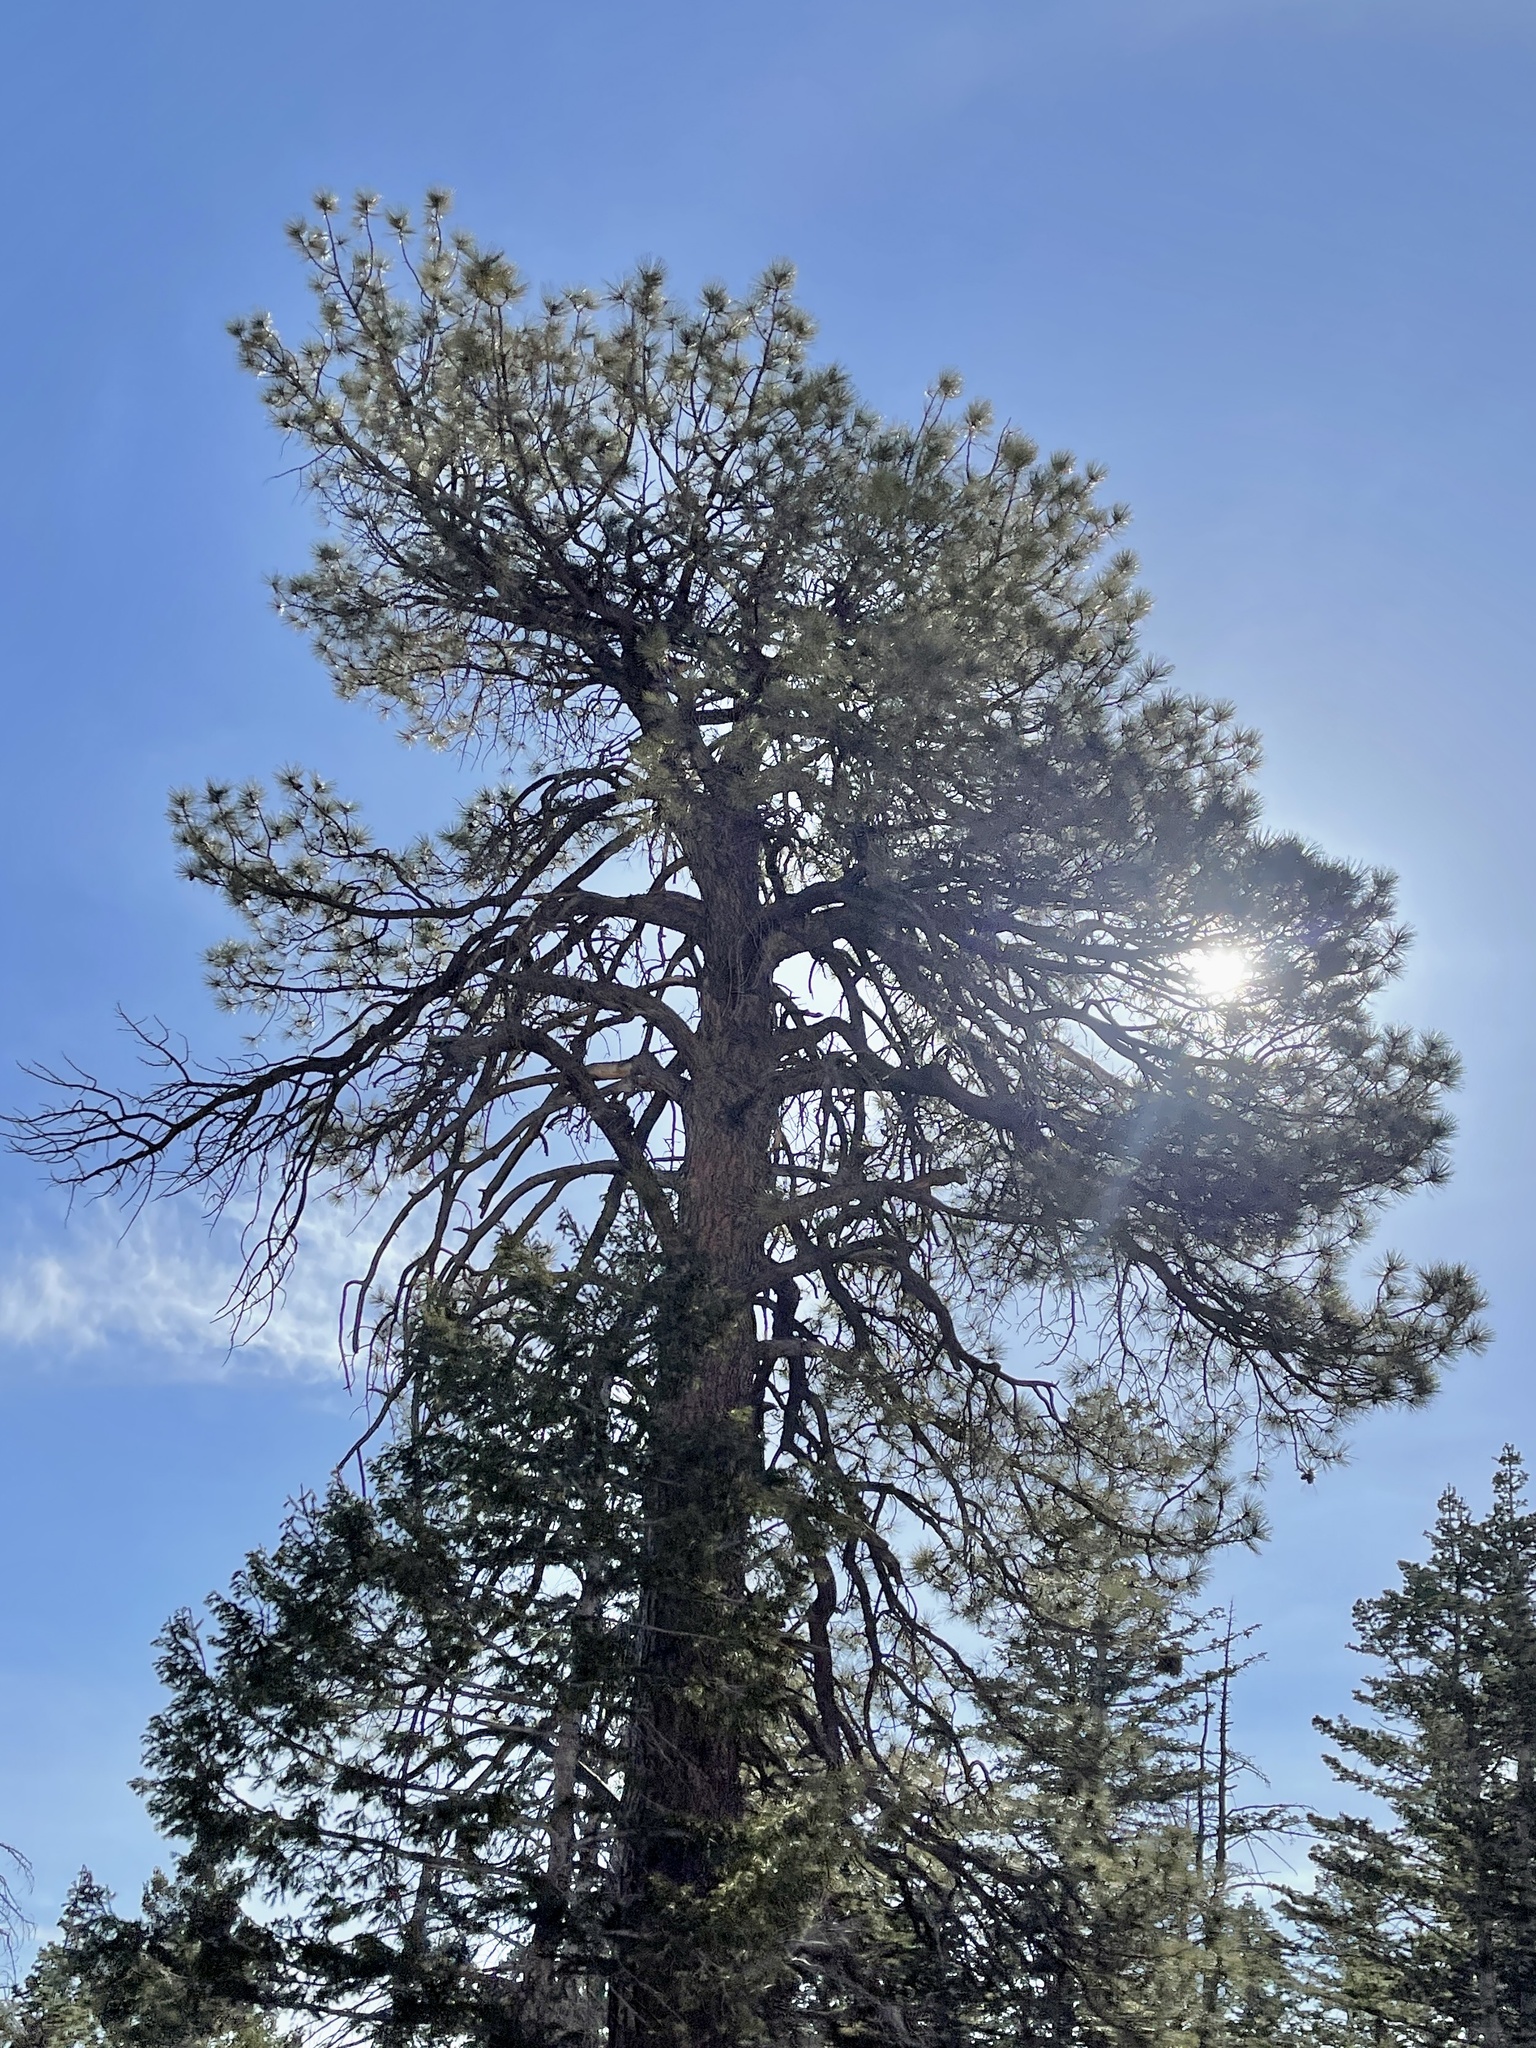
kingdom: Plantae
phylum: Tracheophyta
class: Pinopsida
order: Pinales
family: Pinaceae
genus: Pinus
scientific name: Pinus ponderosa
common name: Western yellow-pine
